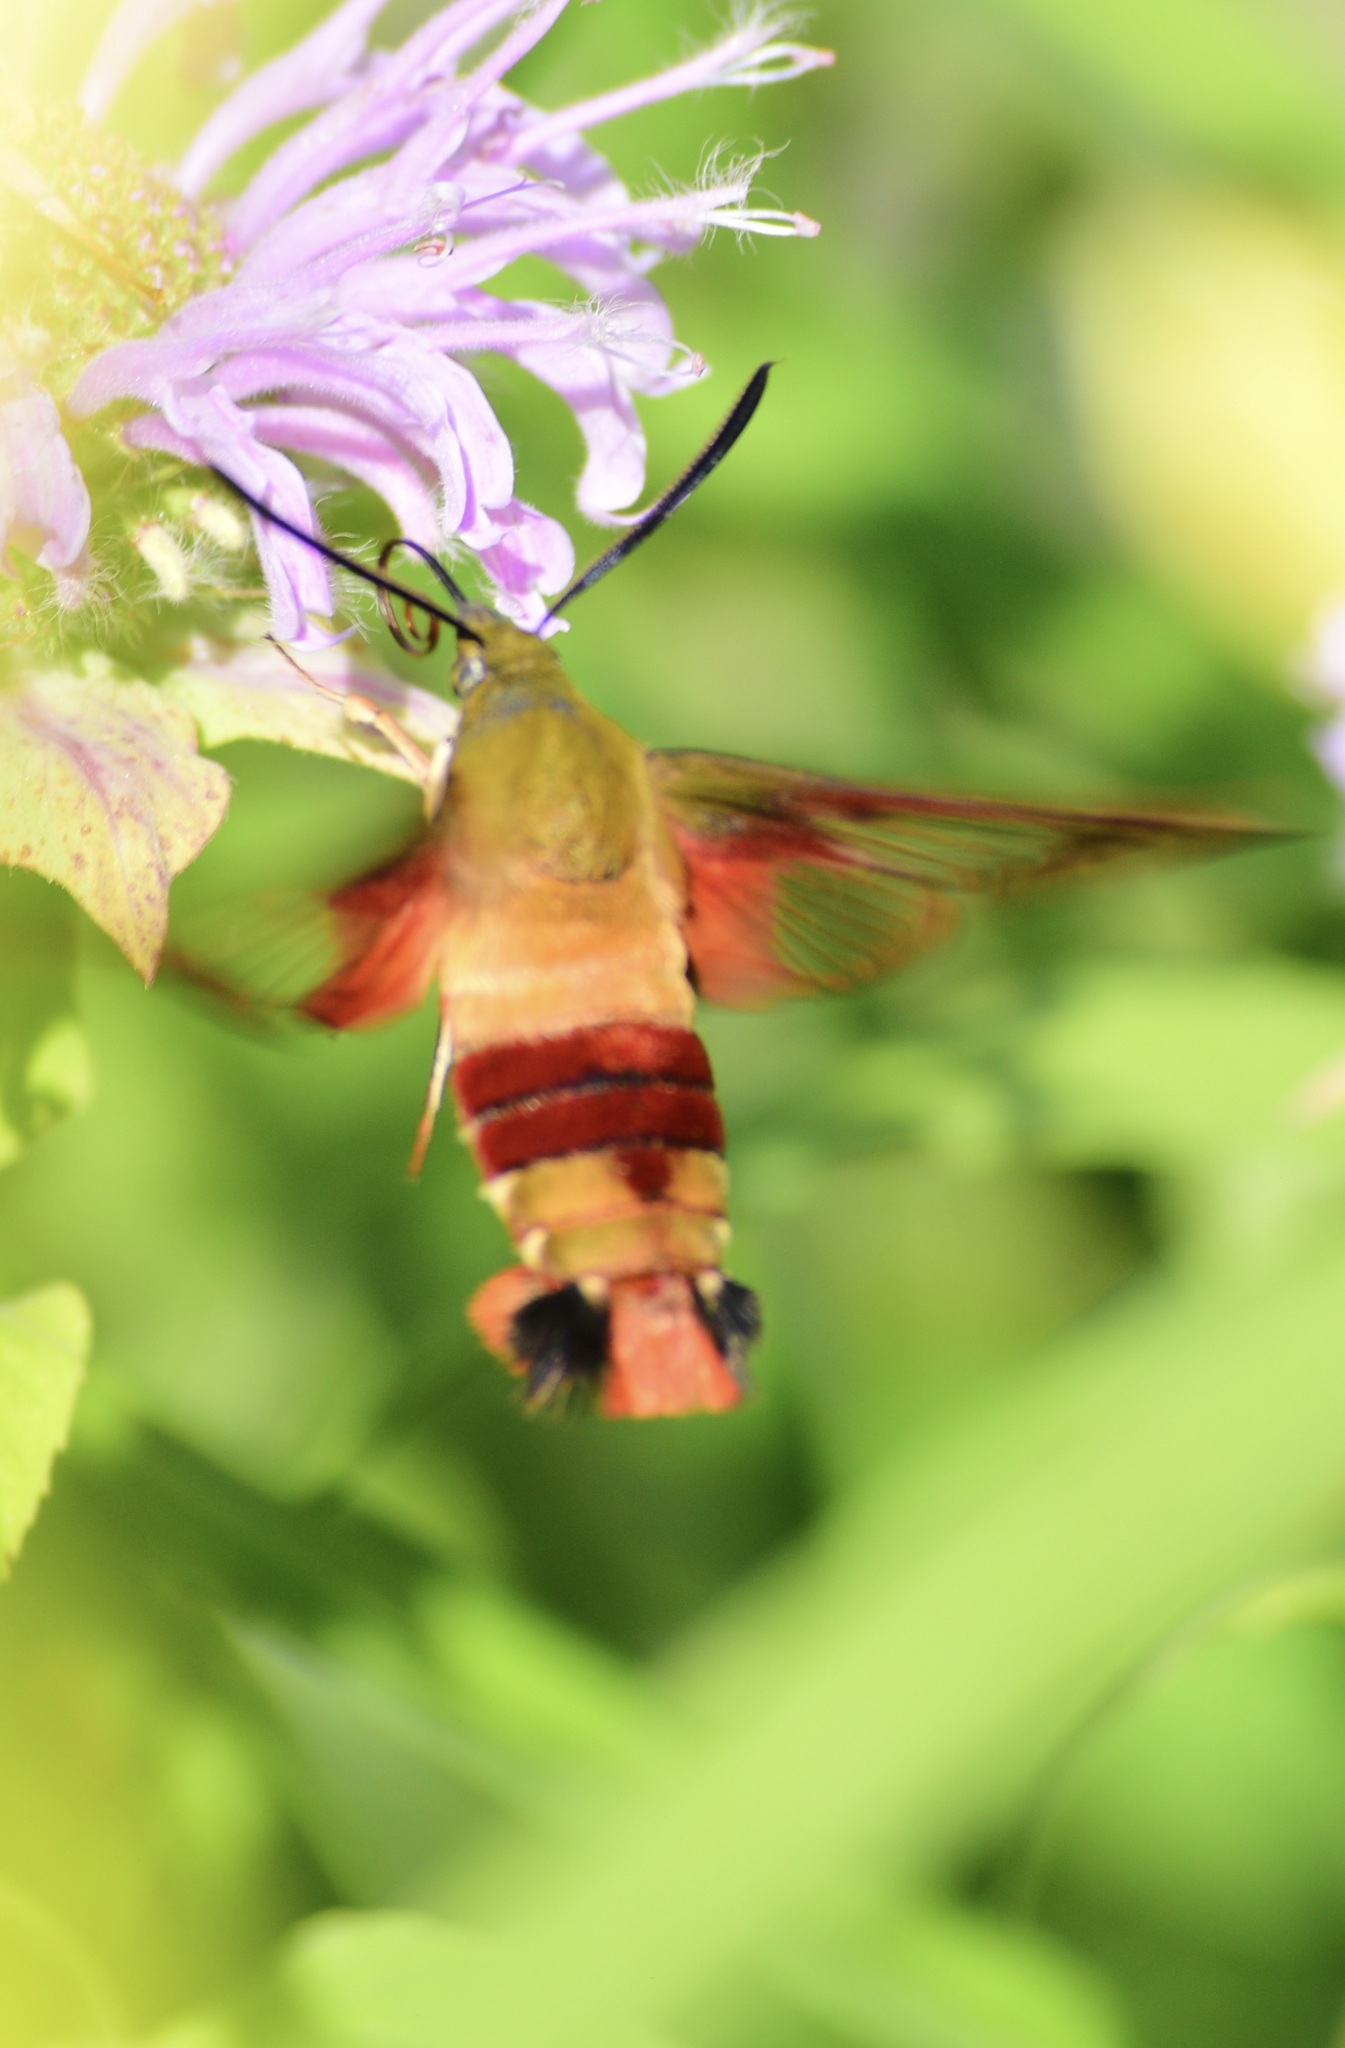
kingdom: Animalia
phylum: Arthropoda
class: Insecta
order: Lepidoptera
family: Sphingidae
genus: Hemaris
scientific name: Hemaris thysbe
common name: Common clear-wing
